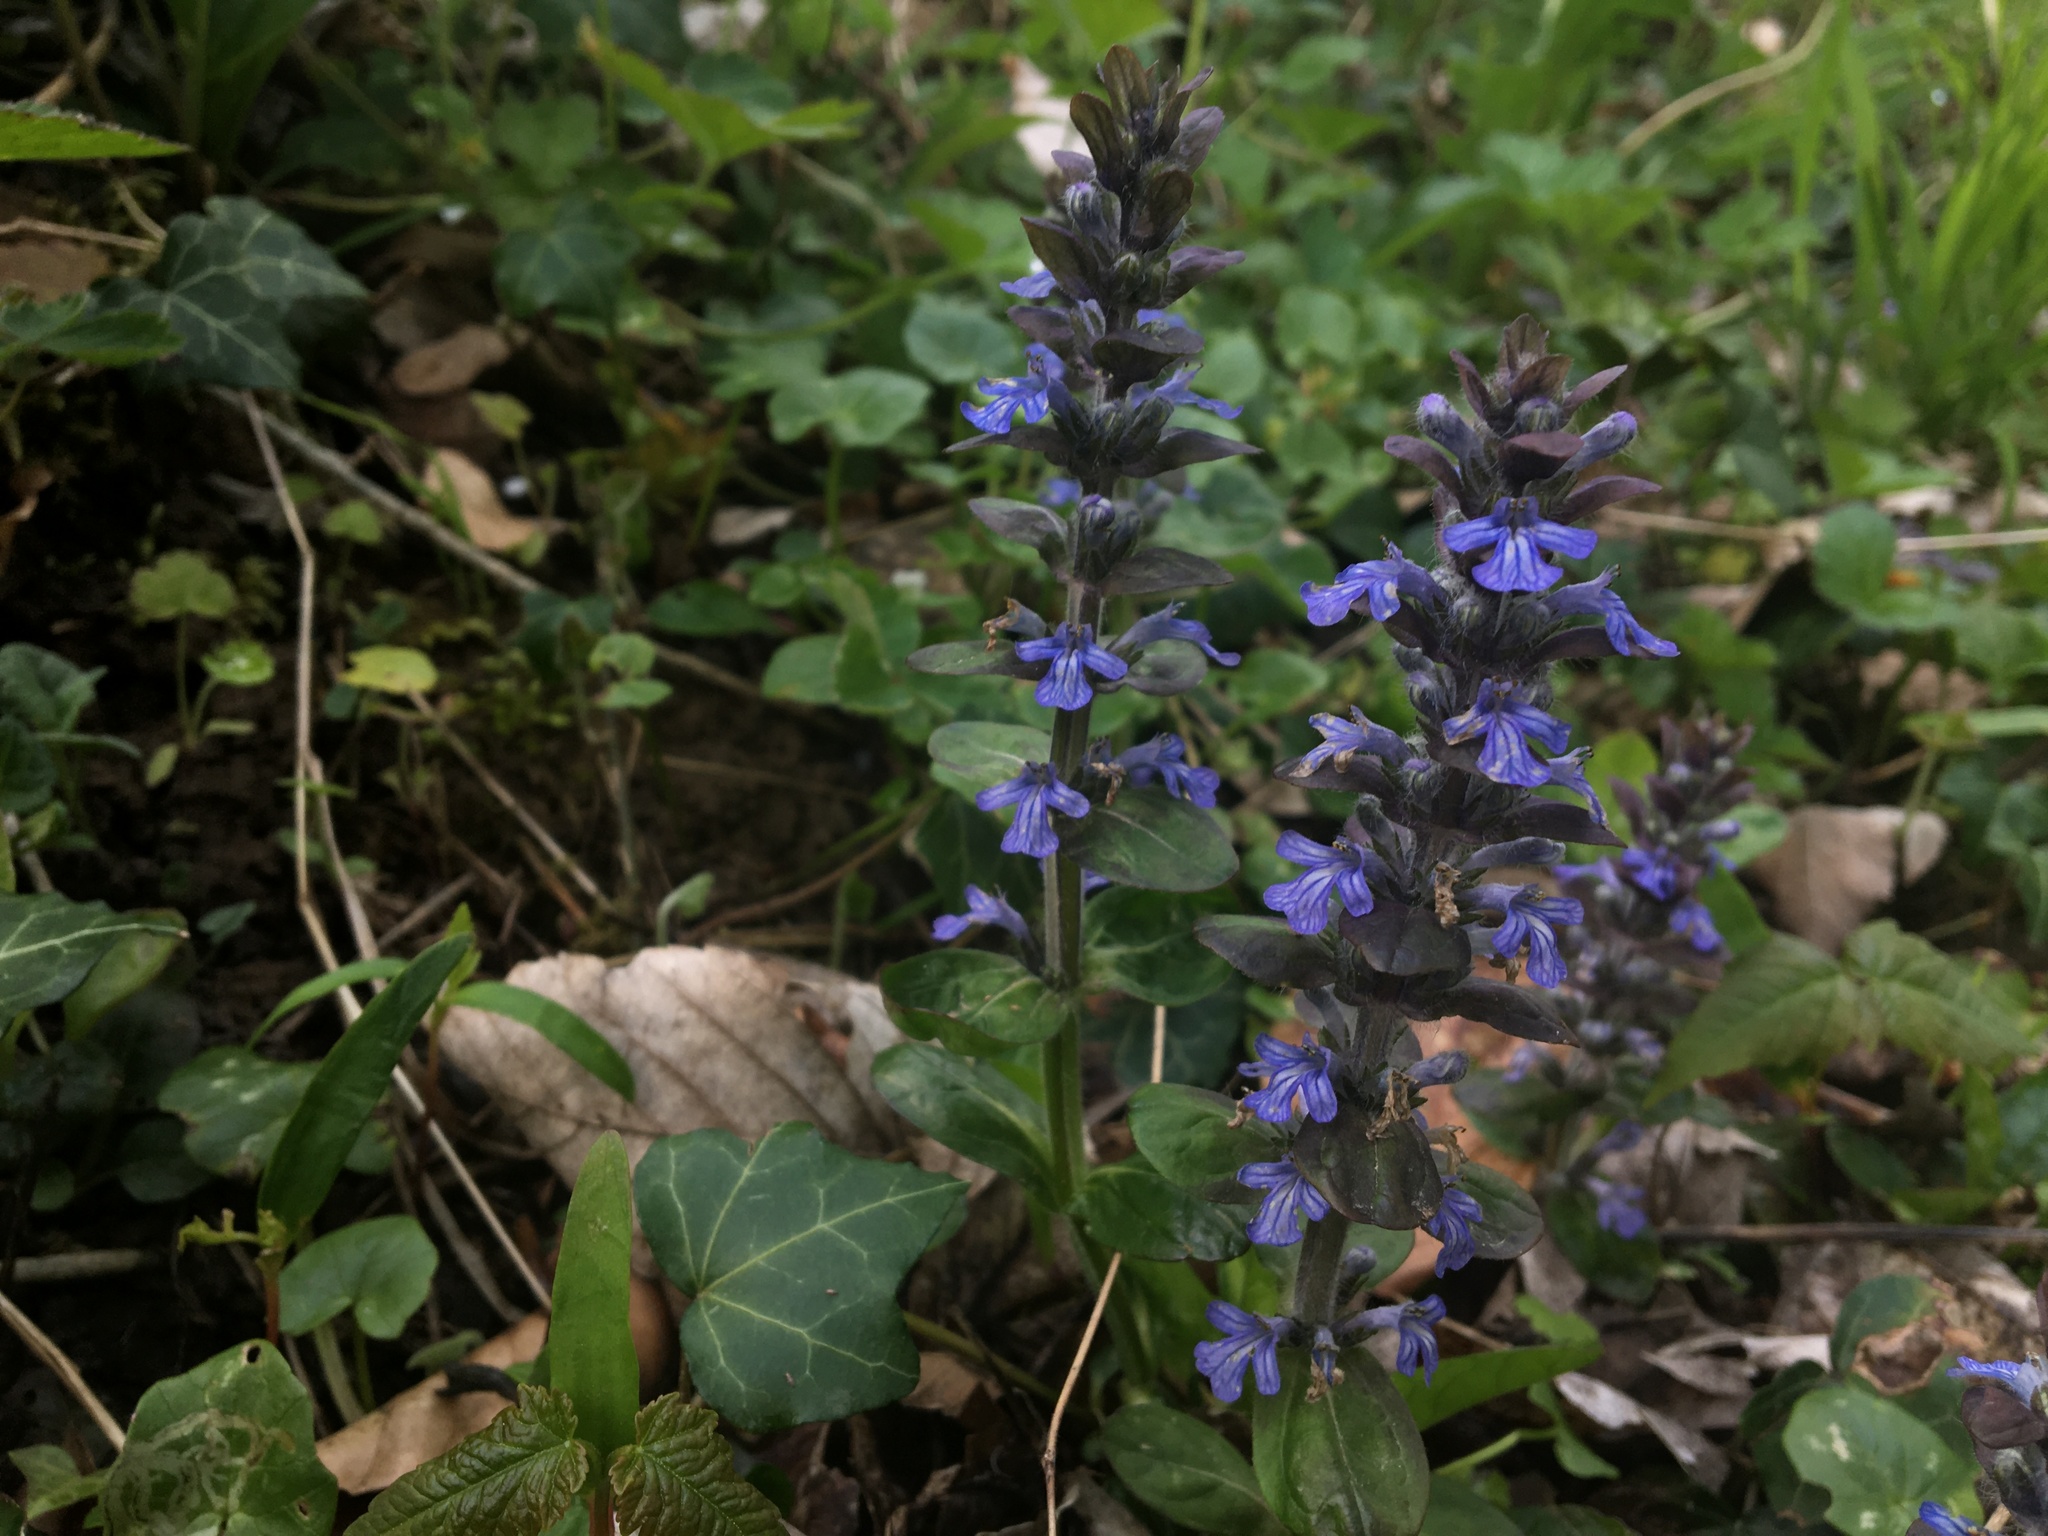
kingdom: Plantae
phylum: Tracheophyta
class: Magnoliopsida
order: Lamiales
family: Lamiaceae
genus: Ajuga
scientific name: Ajuga reptans
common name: Bugle
